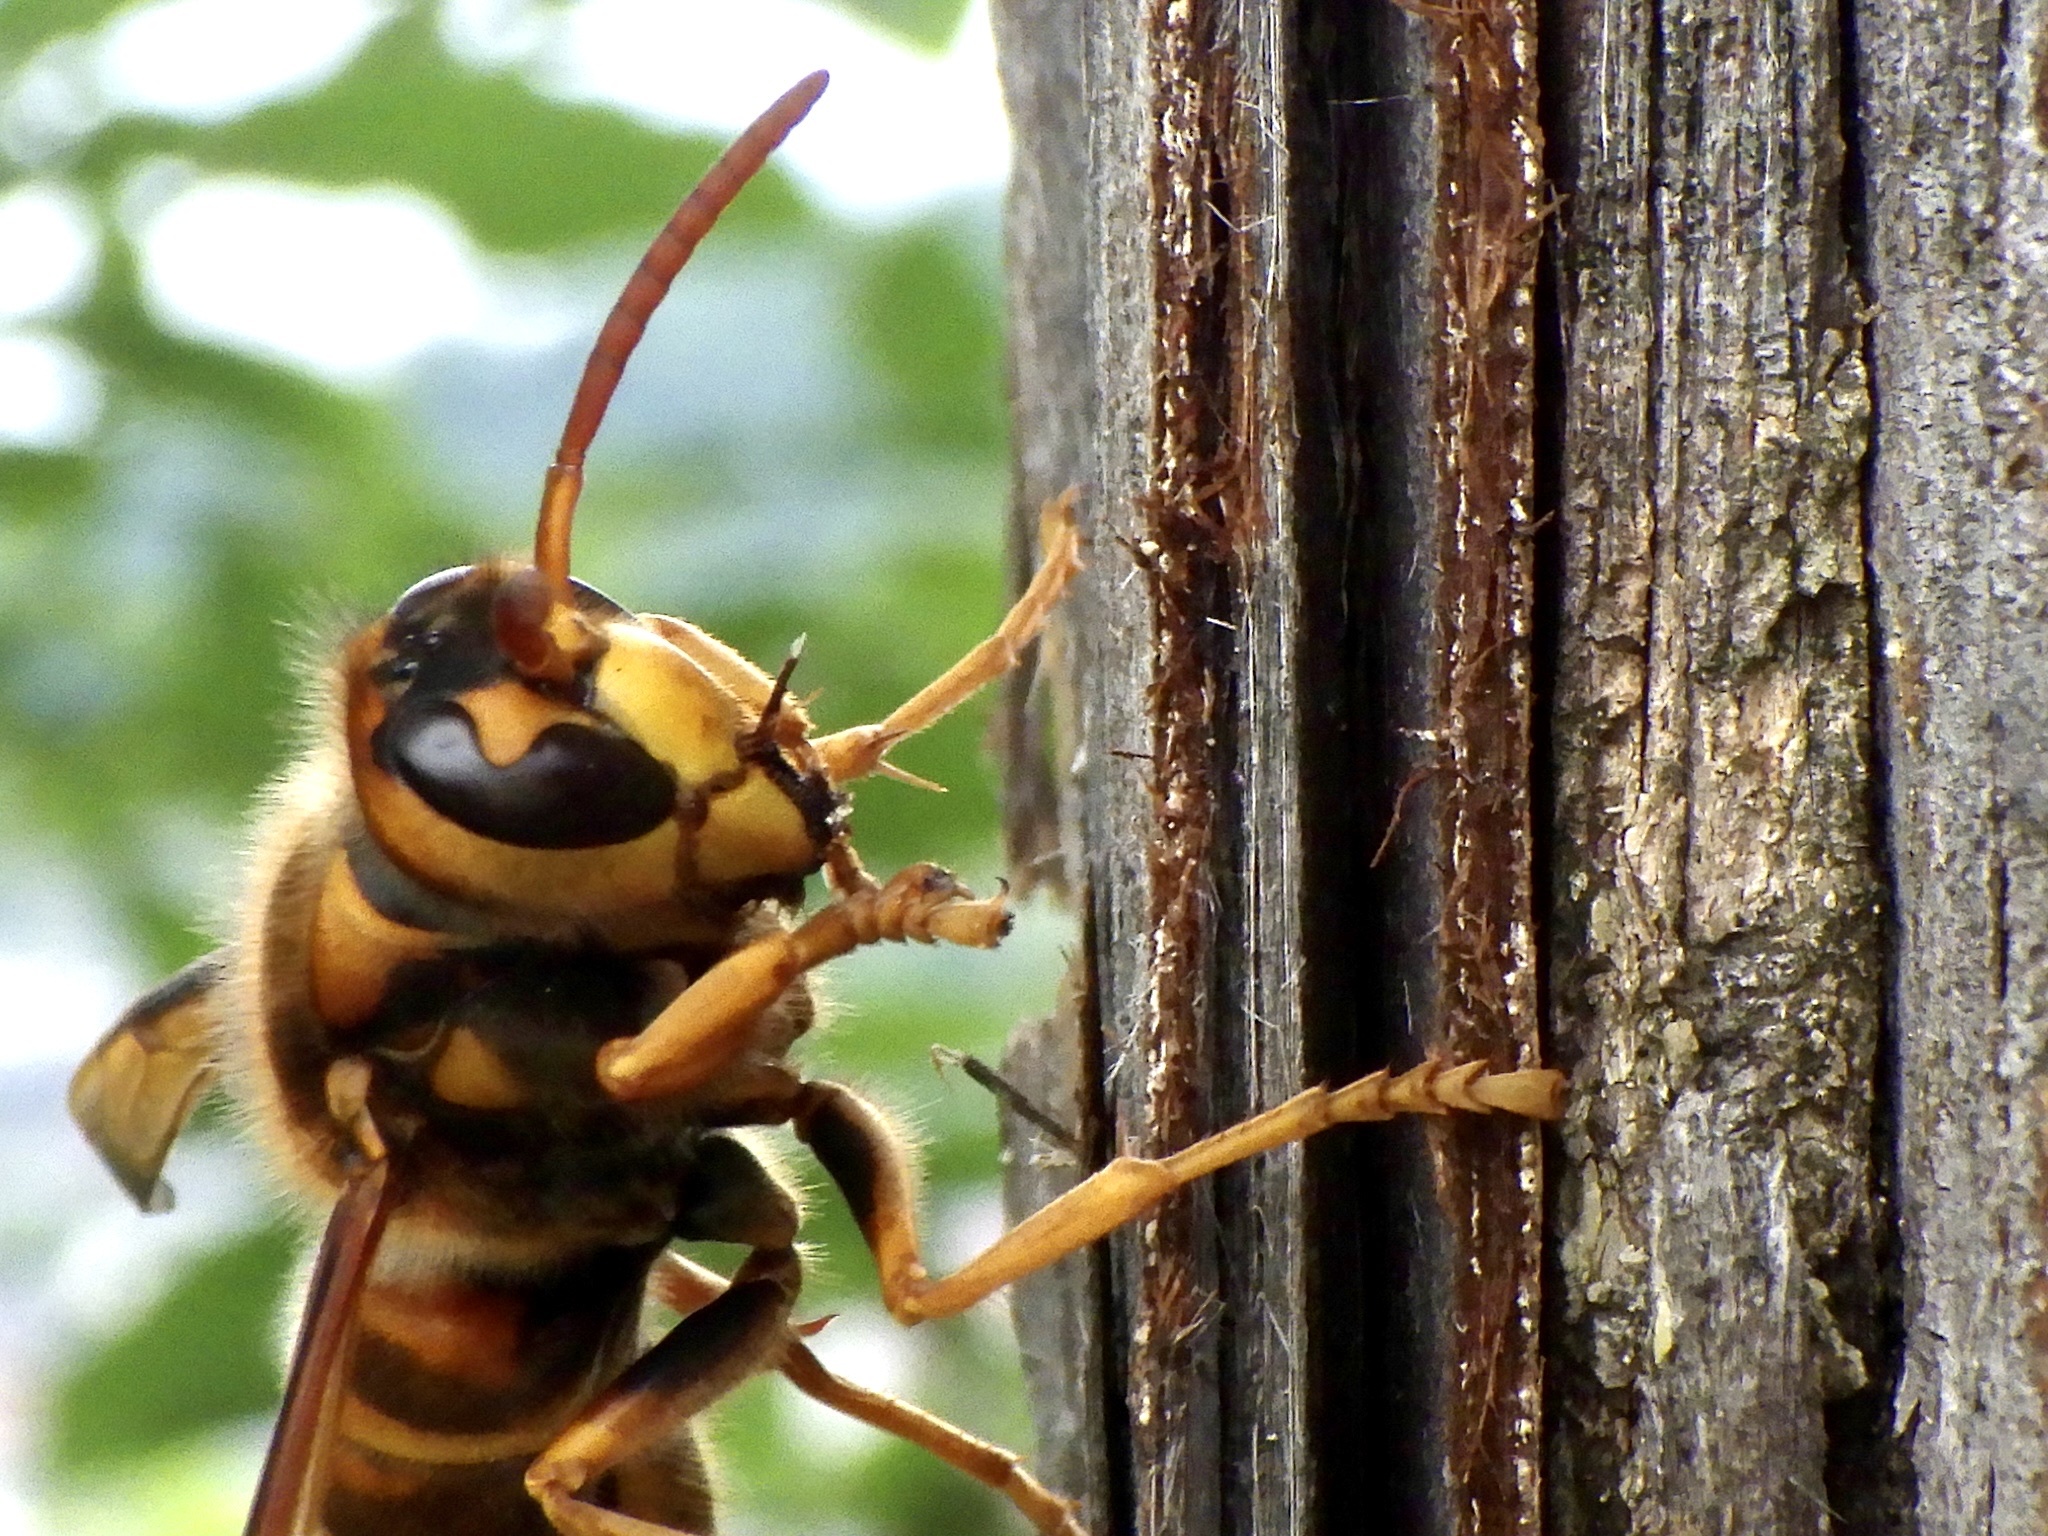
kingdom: Animalia
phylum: Arthropoda
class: Insecta
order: Hymenoptera
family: Vespidae
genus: Vespa
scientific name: Vespa simillima
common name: Vespid wasp
